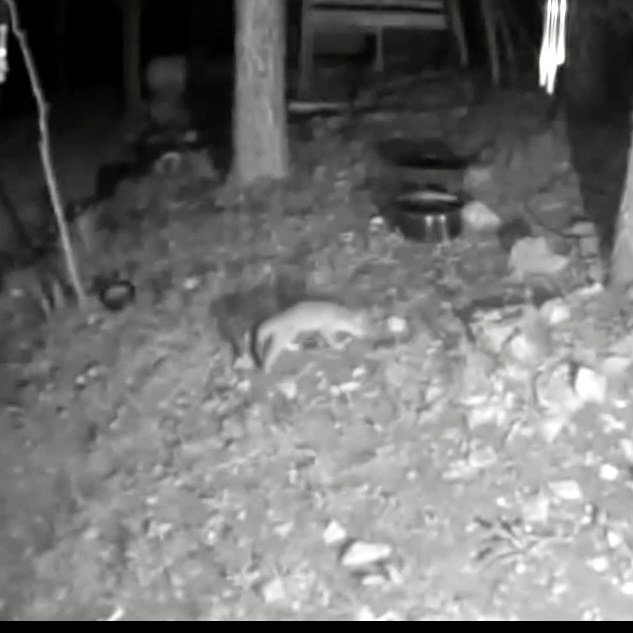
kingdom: Animalia
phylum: Chordata
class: Mammalia
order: Carnivora
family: Canidae
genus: Urocyon
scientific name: Urocyon cinereoargenteus
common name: Gray fox
